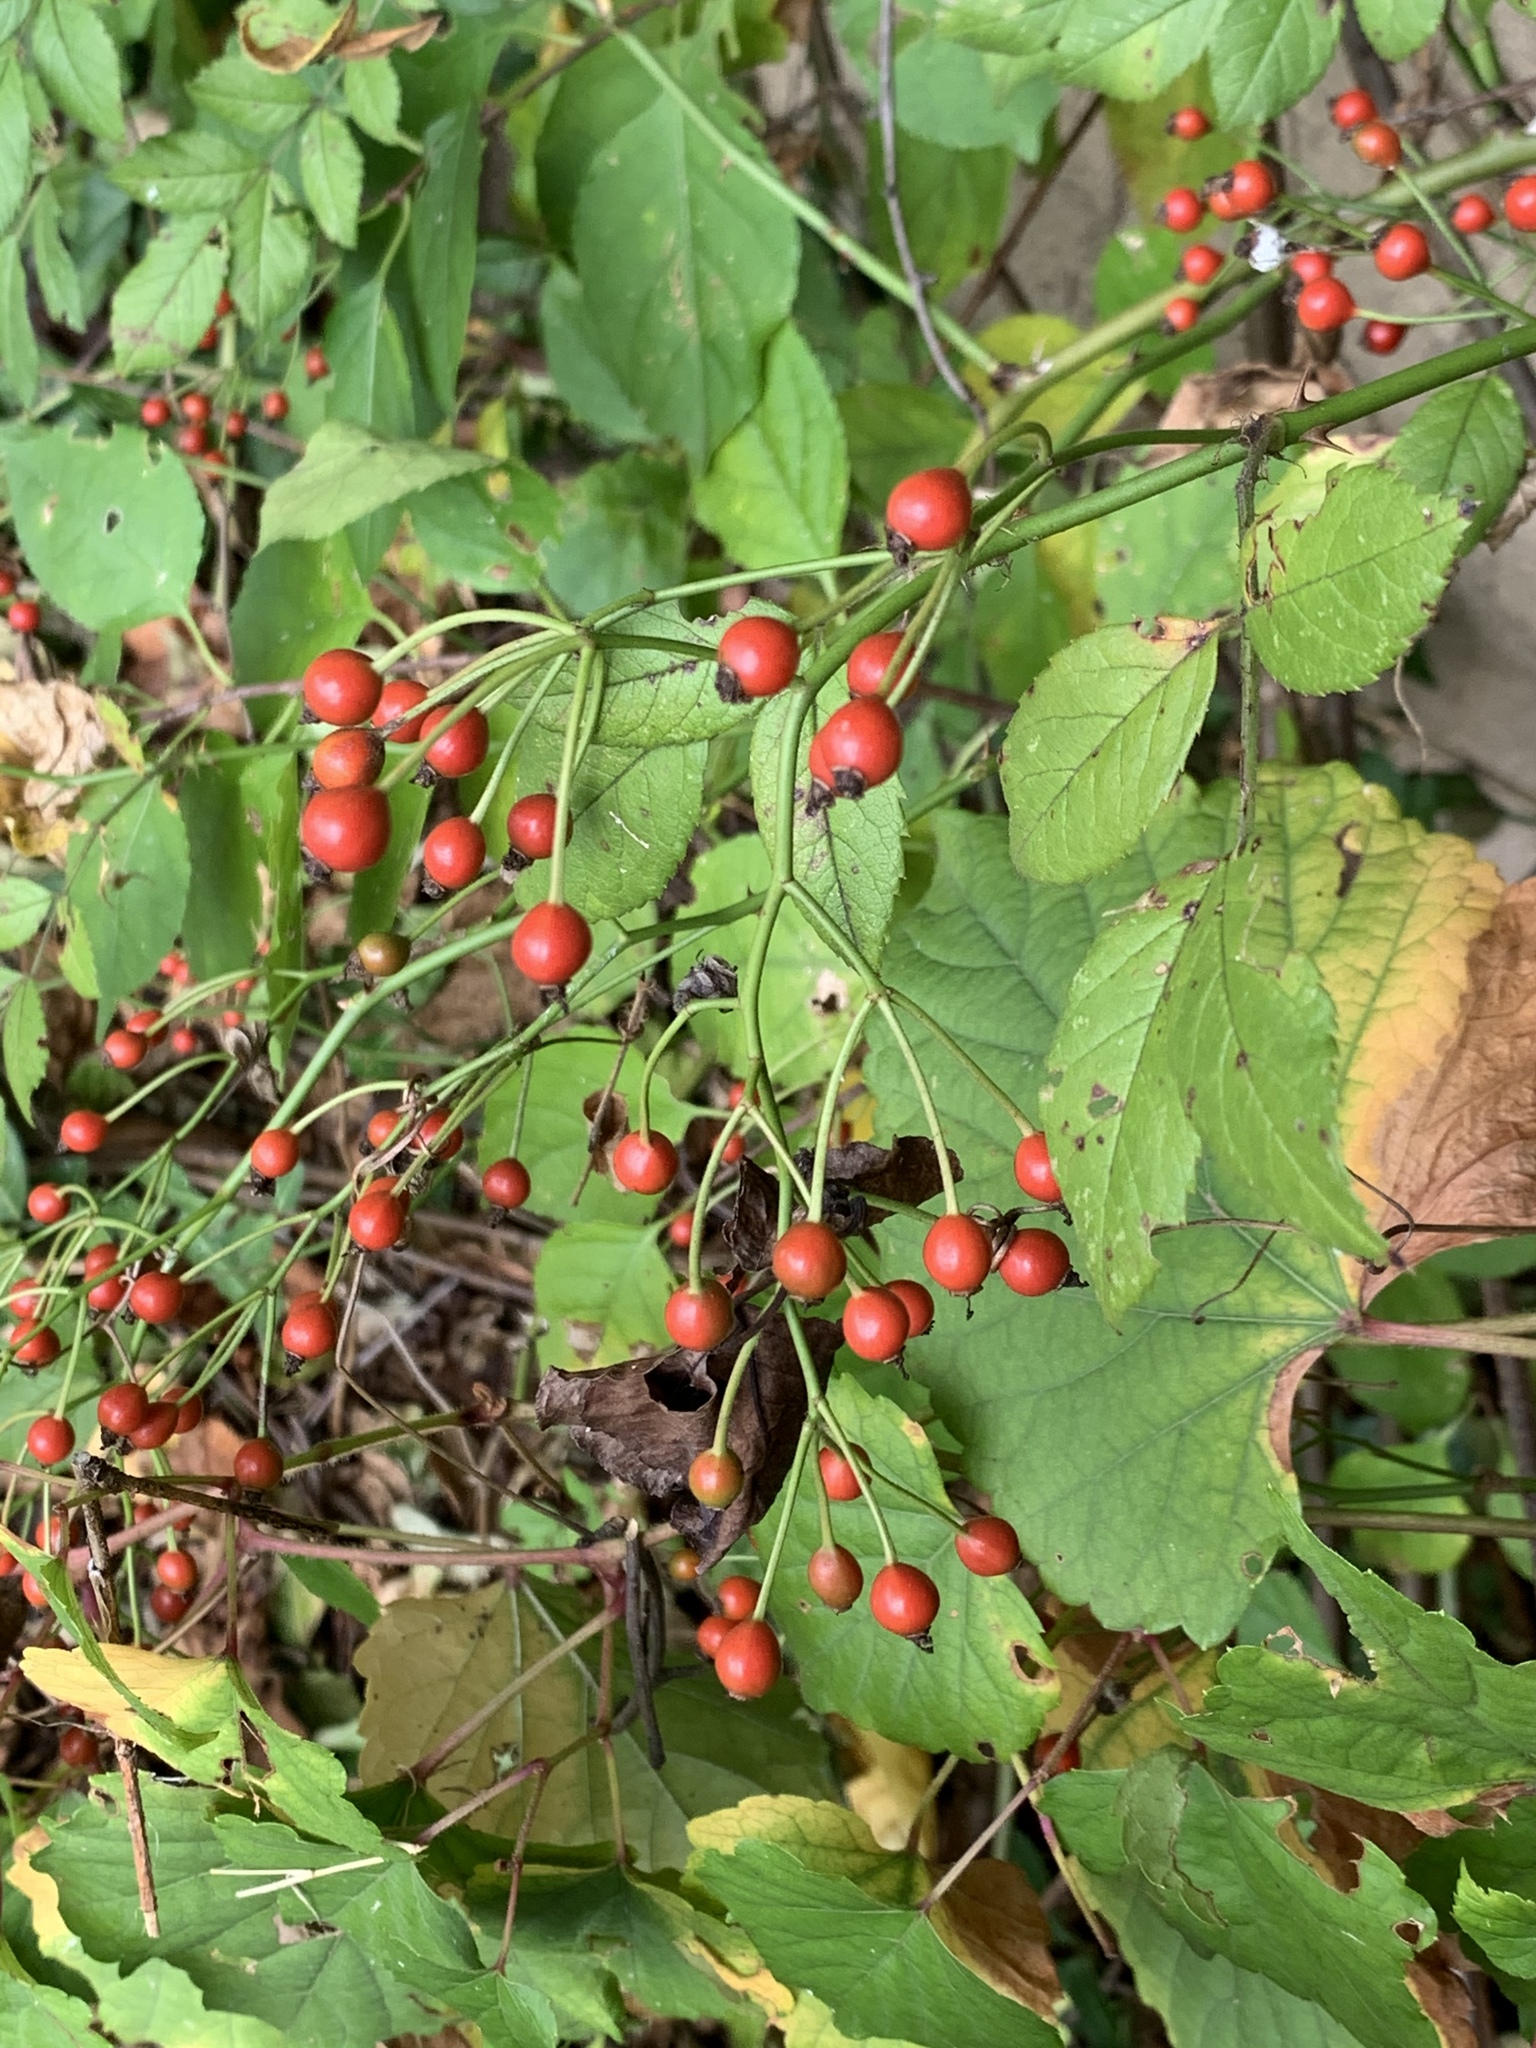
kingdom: Plantae
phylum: Tracheophyta
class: Magnoliopsida
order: Rosales
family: Rosaceae
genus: Rosa
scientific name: Rosa multiflora
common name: Multiflora rose
